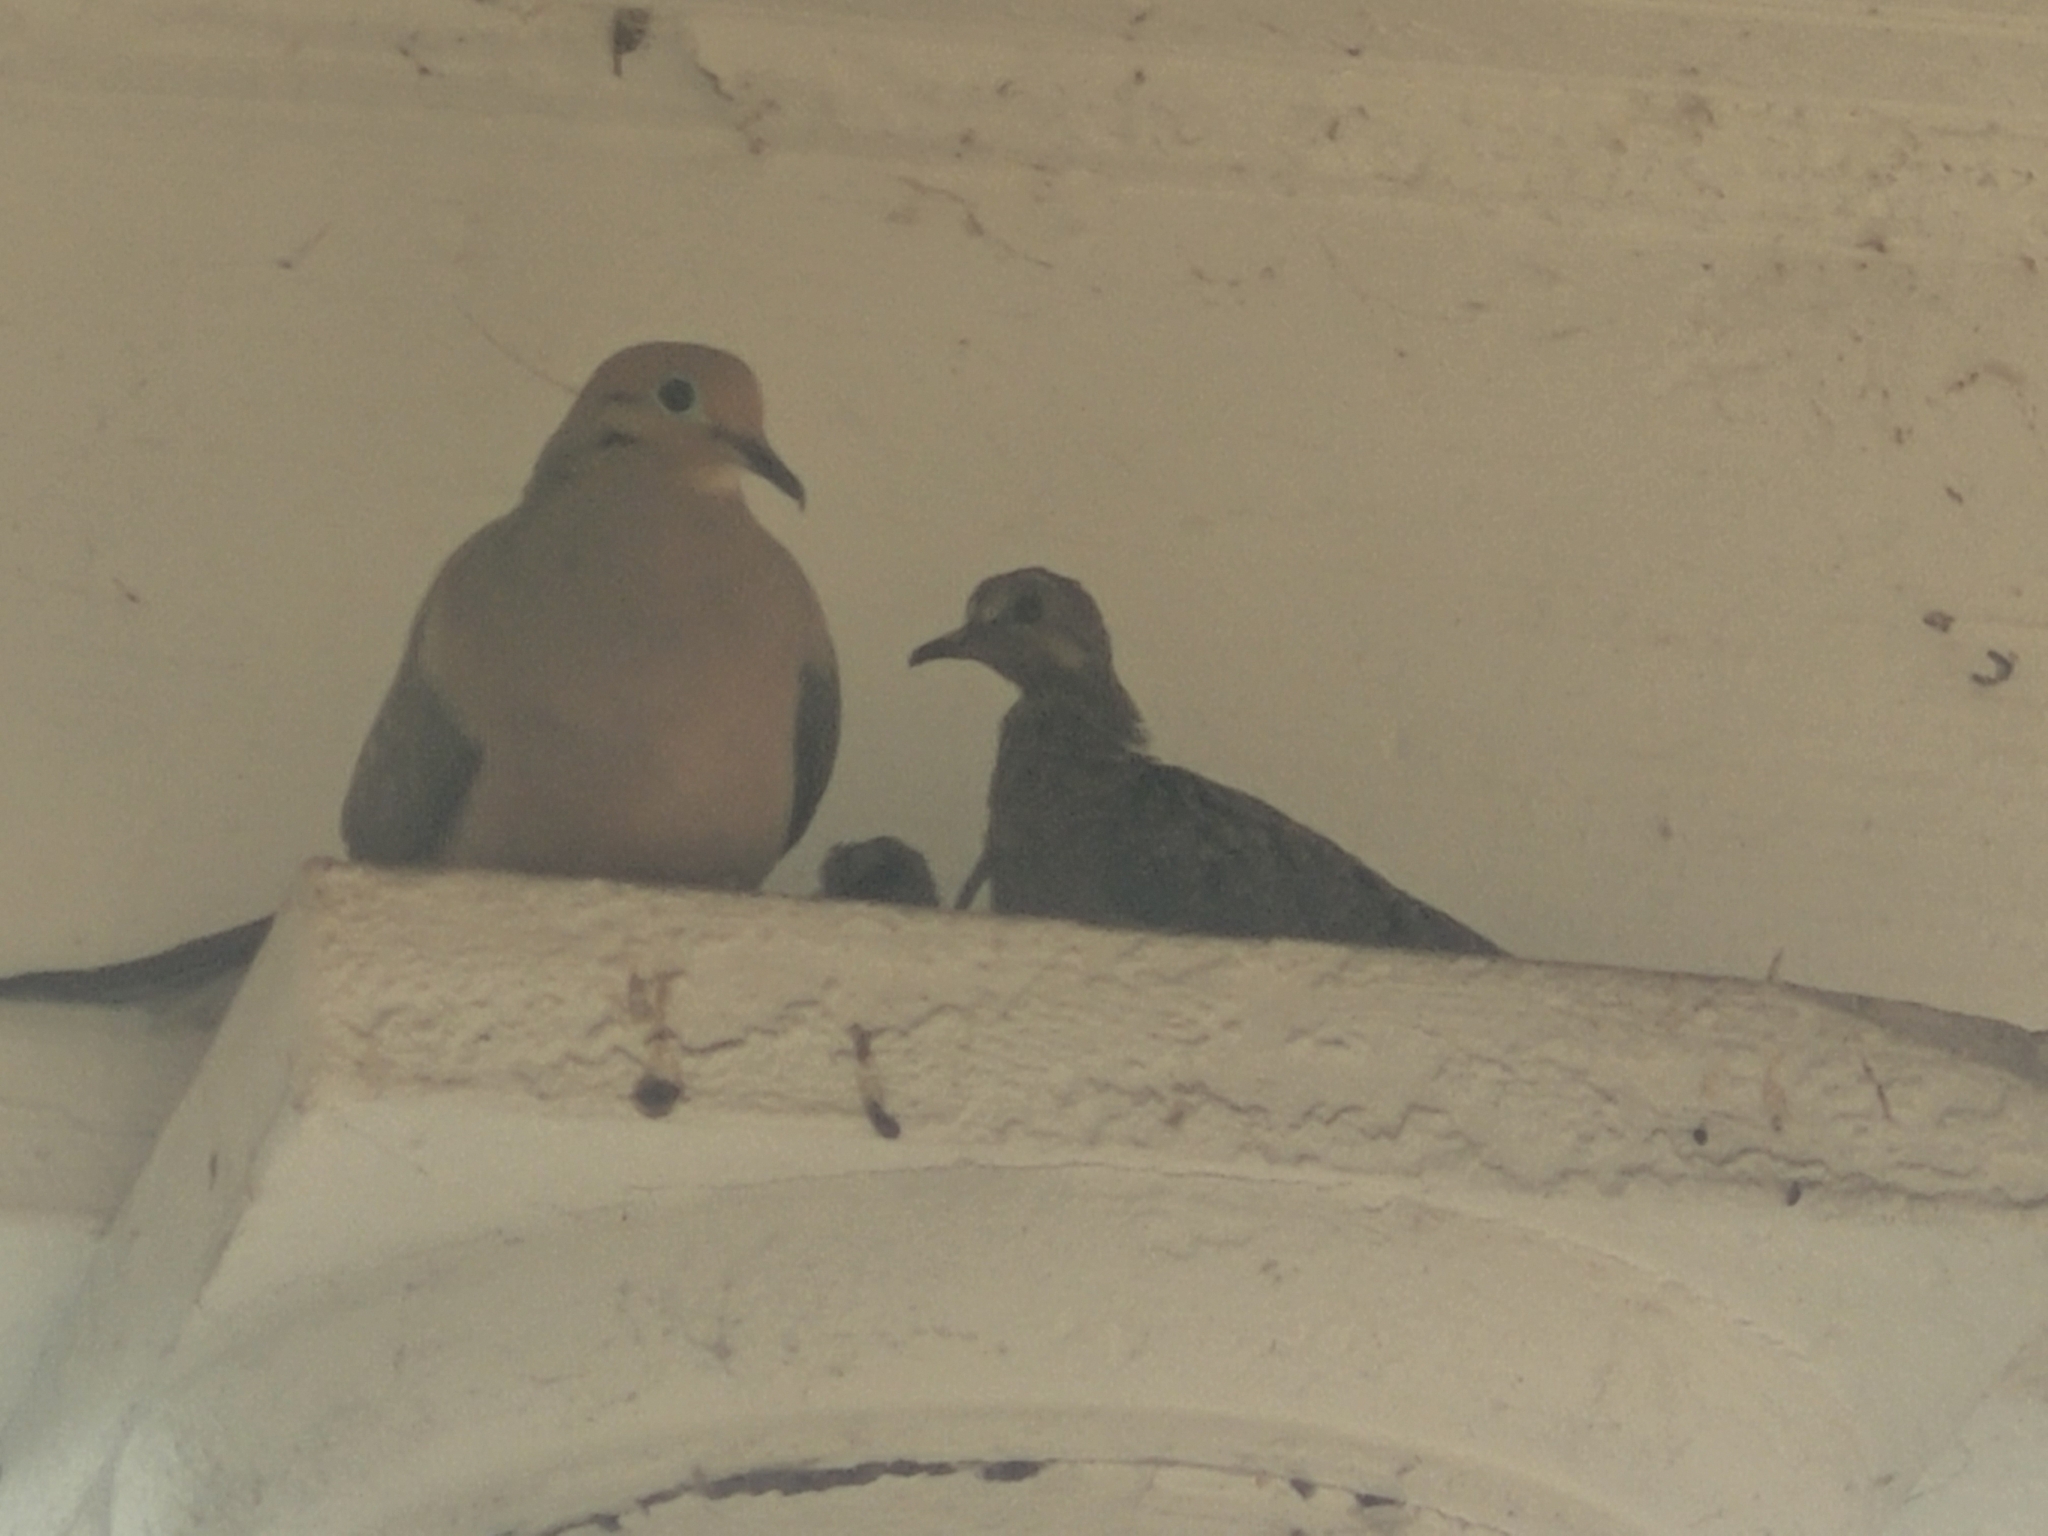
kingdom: Animalia
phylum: Chordata
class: Aves
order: Columbiformes
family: Columbidae
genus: Zenaida
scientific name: Zenaida macroura
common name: Mourning dove
